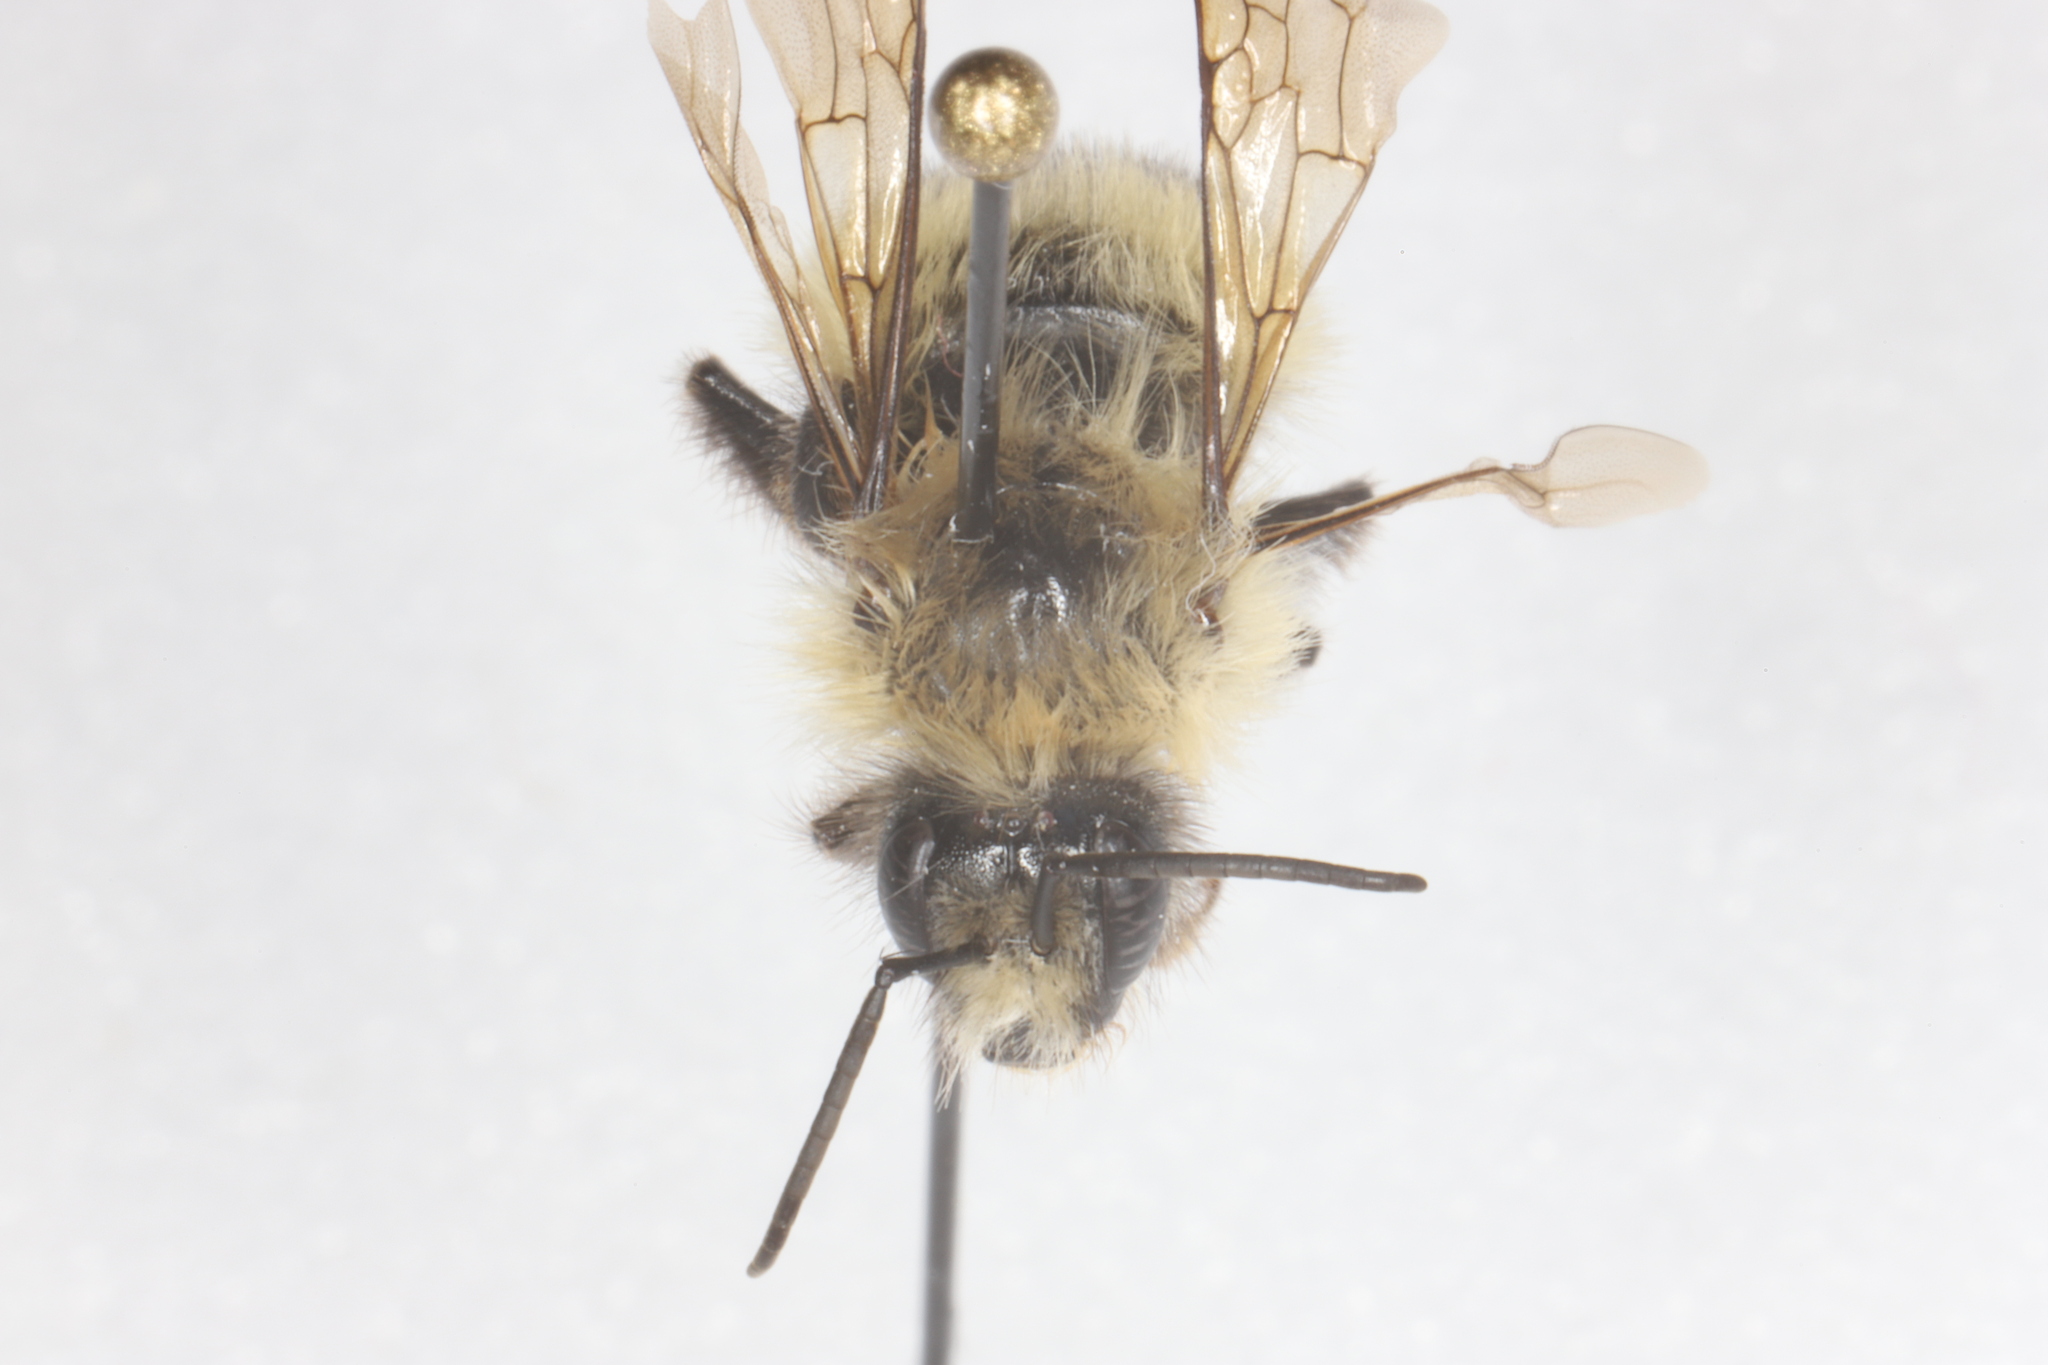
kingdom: Animalia
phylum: Arthropoda
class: Insecta
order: Hymenoptera
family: Apidae
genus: Bombus
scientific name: Bombus frigidus
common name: Frigid bumble bee
